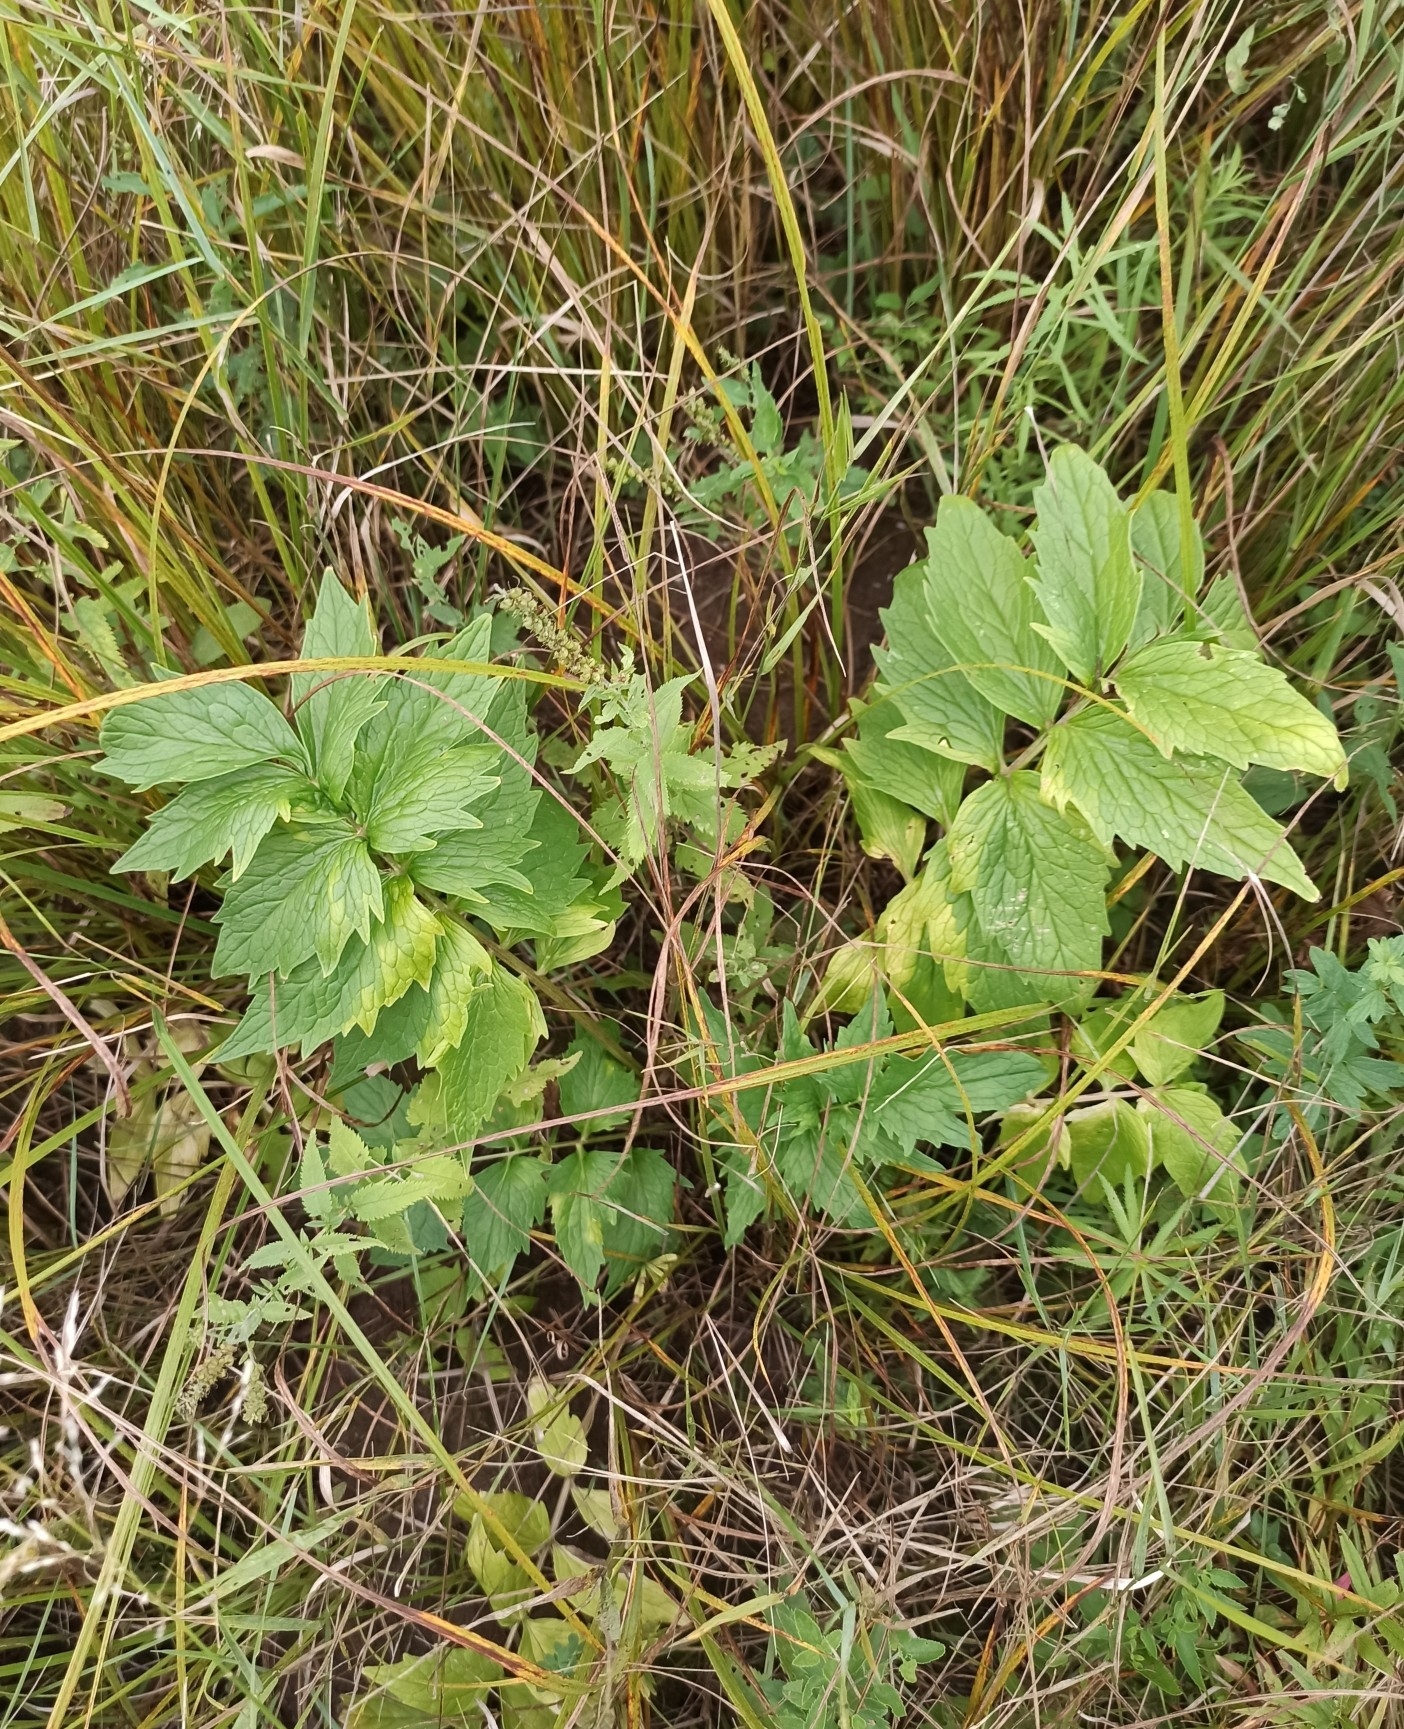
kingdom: Plantae
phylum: Tracheophyta
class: Magnoliopsida
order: Dipsacales
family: Caprifoliaceae
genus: Valeriana
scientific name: Valeriana officinalis
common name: Common valerian
